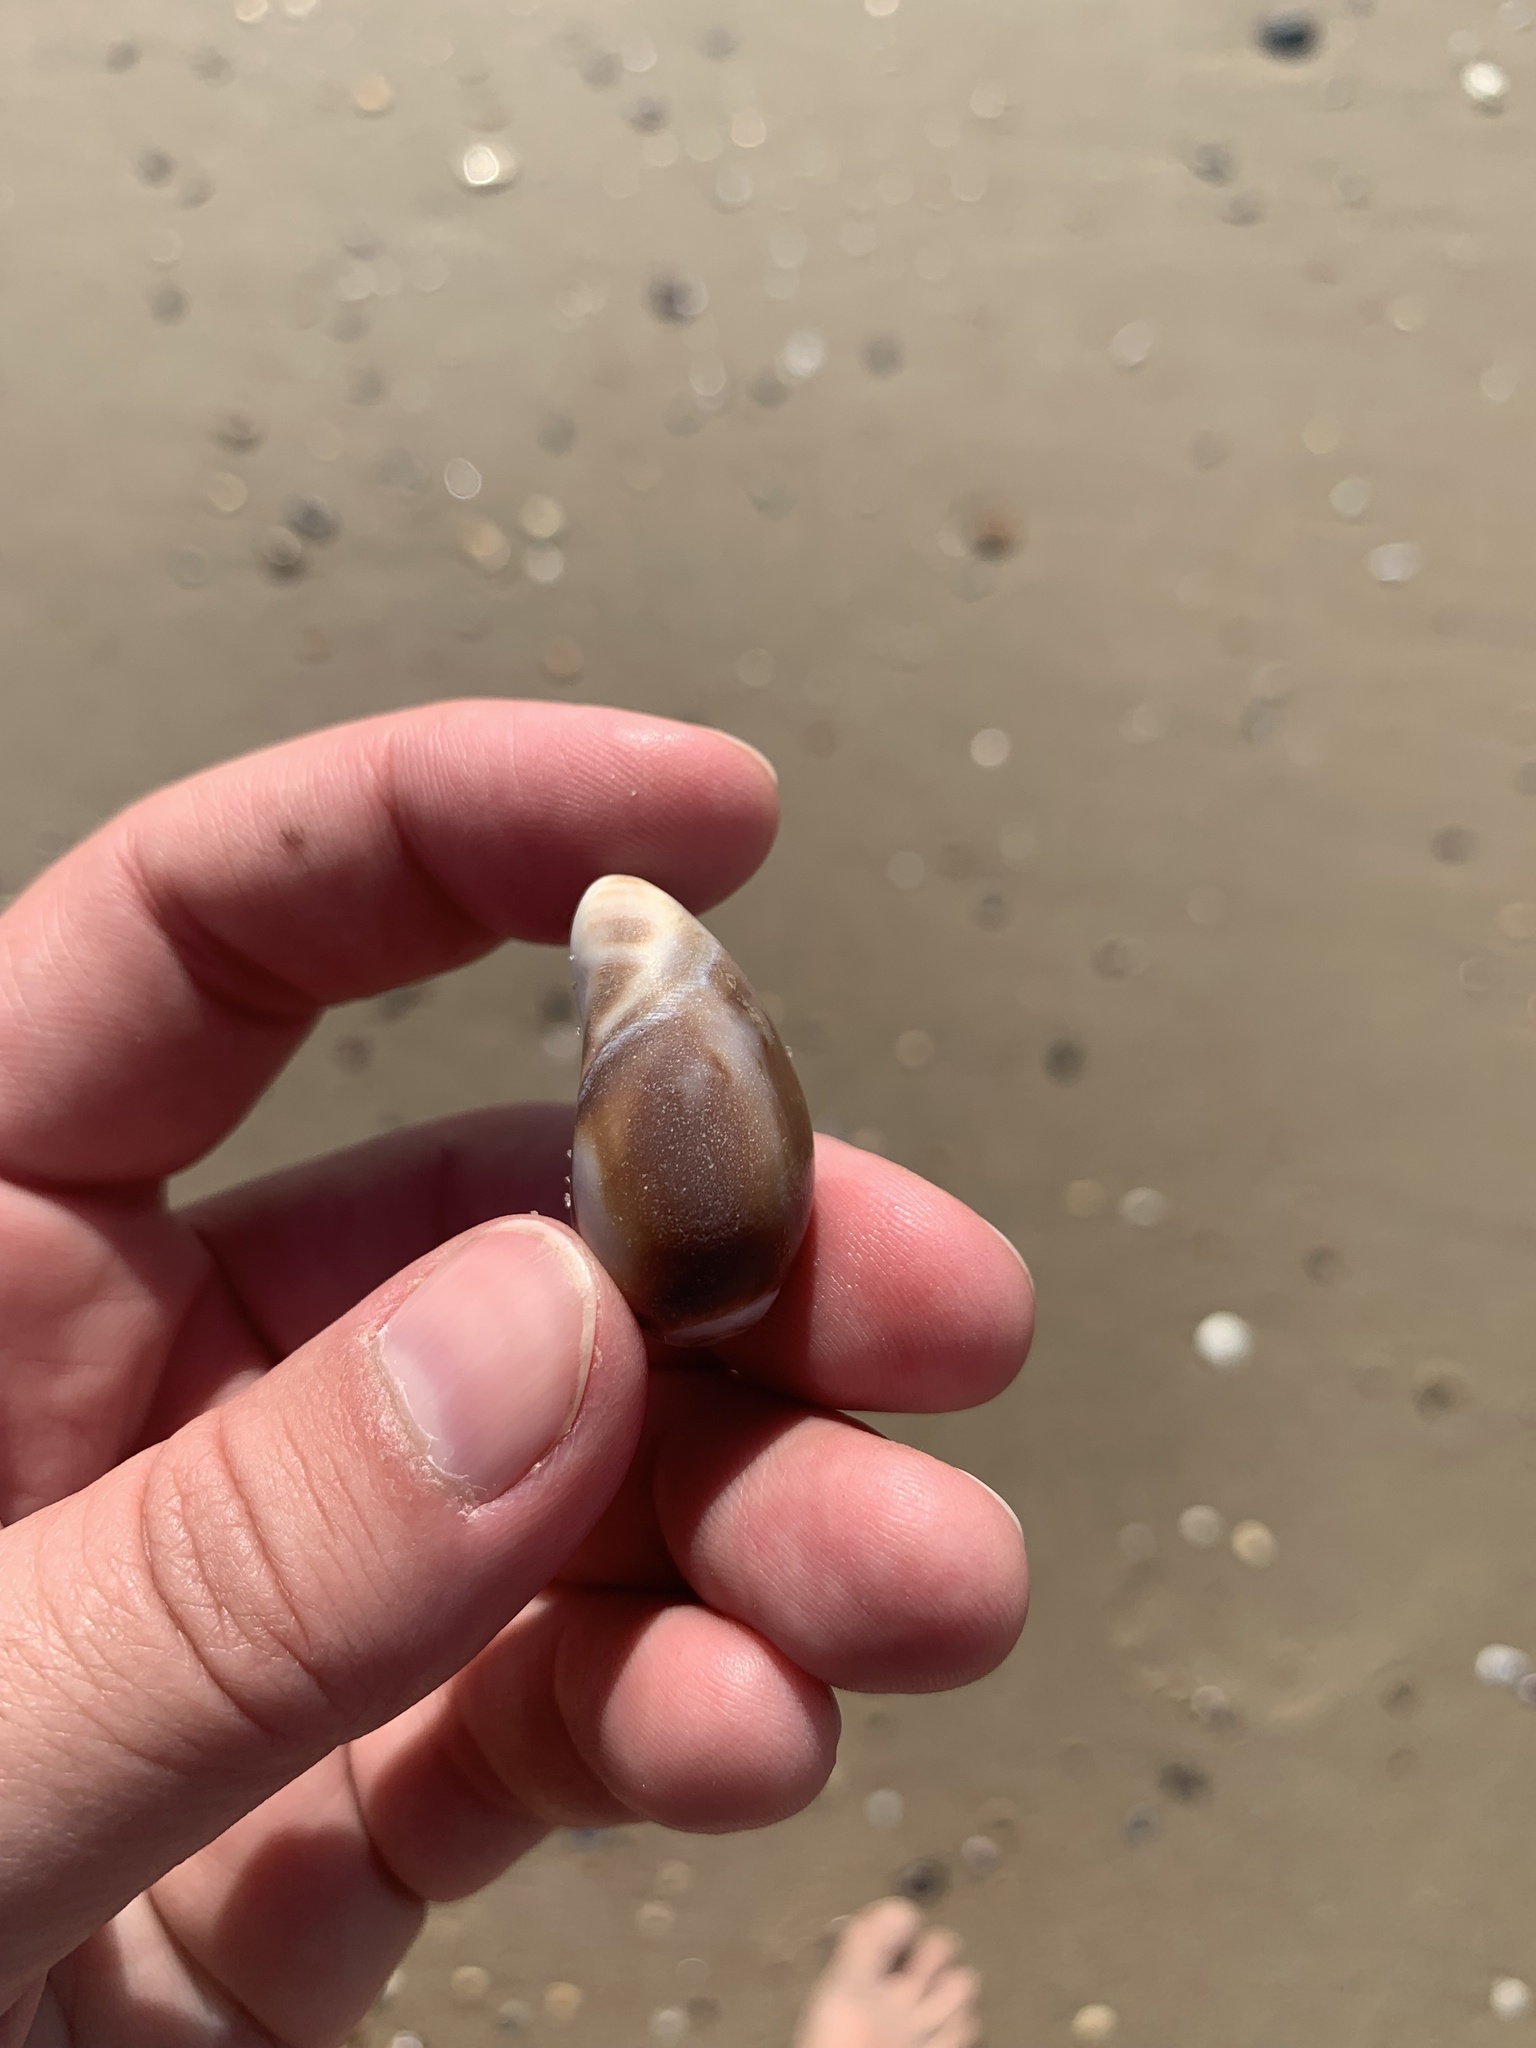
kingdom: Animalia
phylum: Mollusca
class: Gastropoda
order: Neogastropoda
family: Olividae
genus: Olivancillaria
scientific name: Olivancillaria deshayesiana
